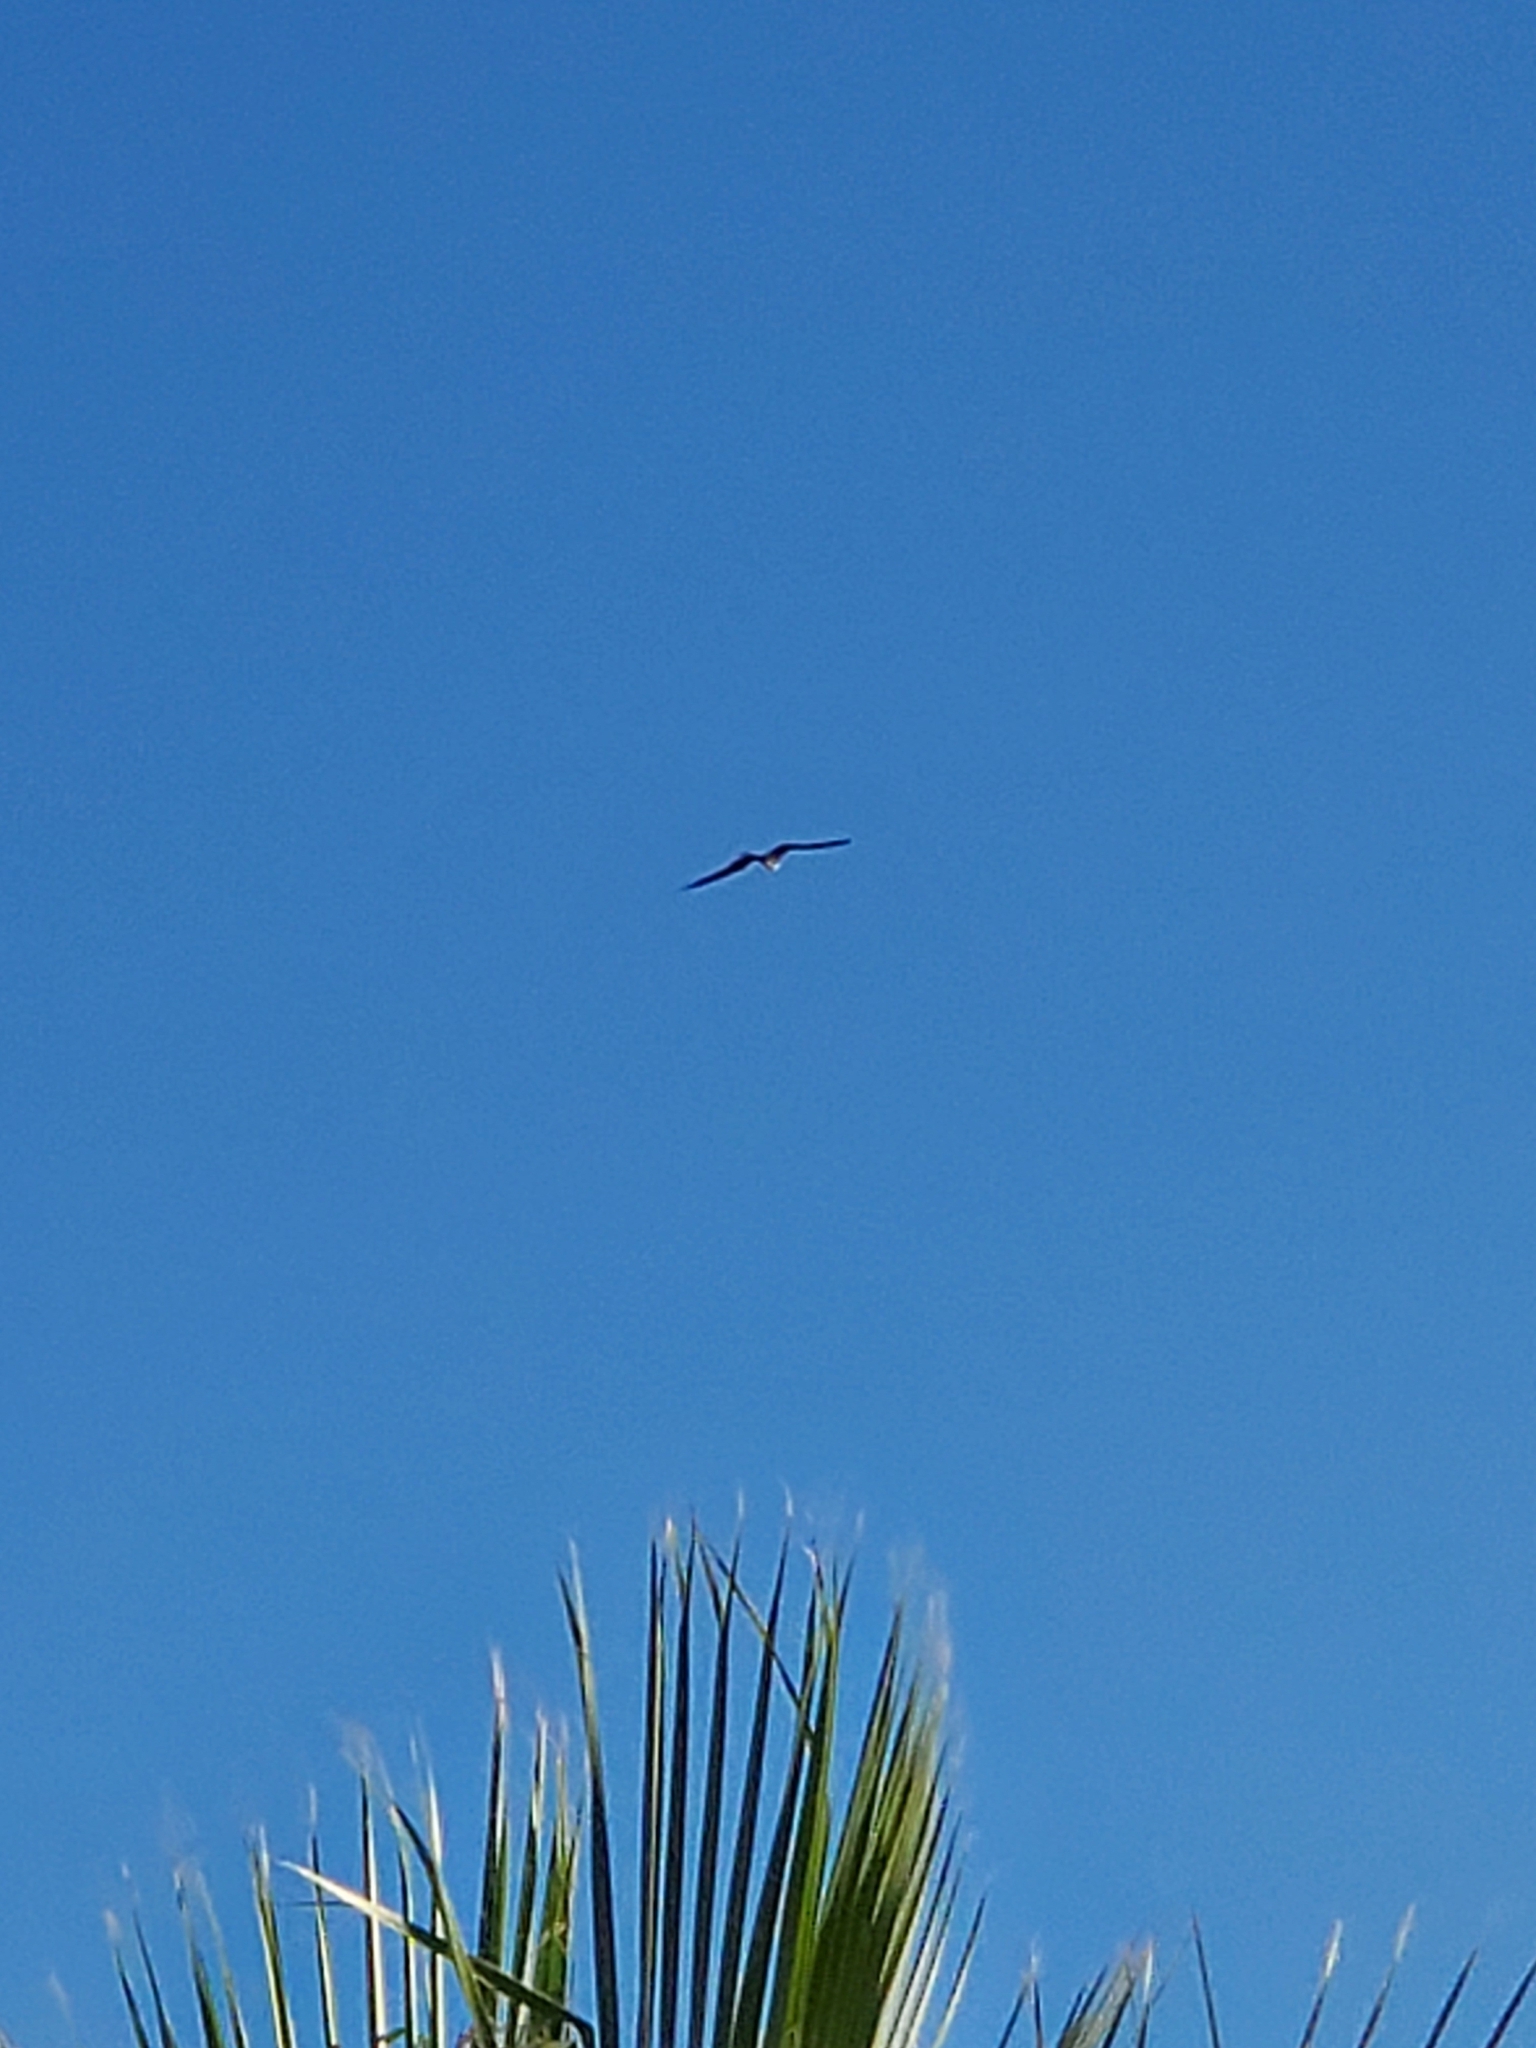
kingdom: Animalia
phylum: Chordata
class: Aves
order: Suliformes
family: Fregatidae
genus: Fregata
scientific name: Fregata magnificens
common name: Magnificent frigatebird
